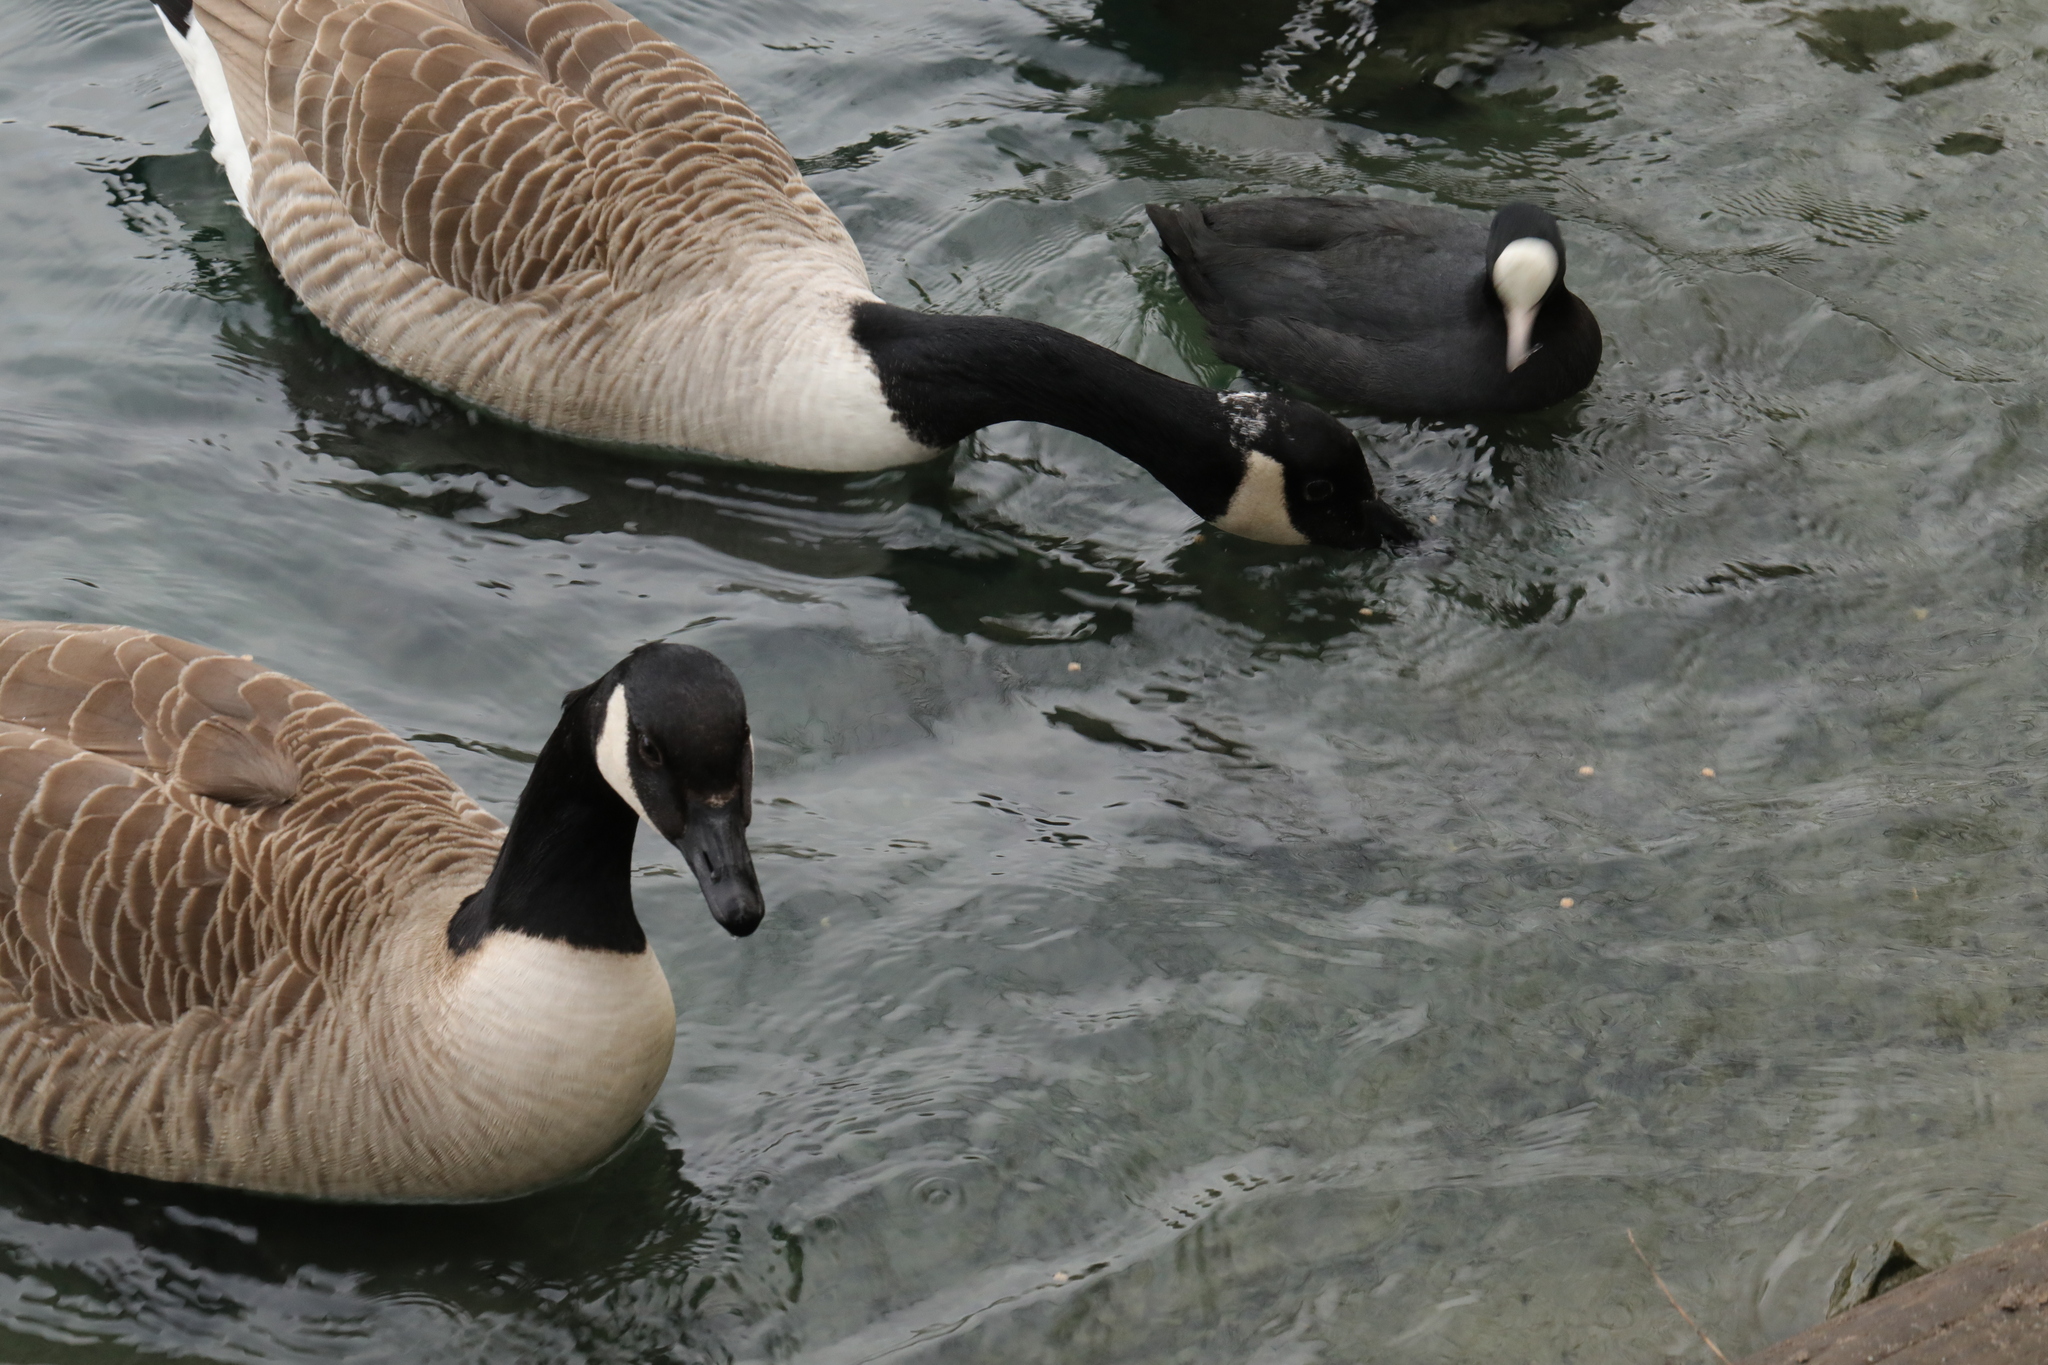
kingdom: Animalia
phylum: Chordata
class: Aves
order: Anseriformes
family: Anatidae
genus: Branta
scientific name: Branta canadensis
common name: Canada goose
